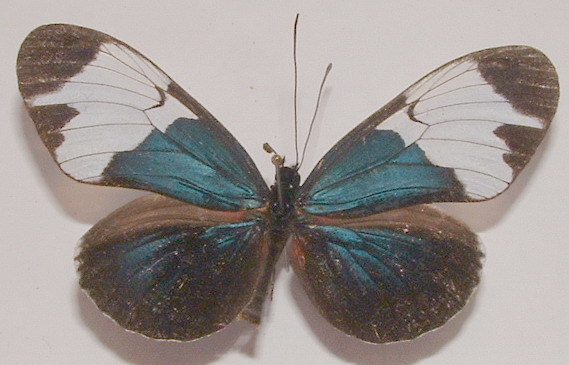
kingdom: Animalia
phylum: Arthropoda
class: Insecta
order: Lepidoptera
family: Nymphalidae
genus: Heliconius
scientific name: Heliconius sapho
